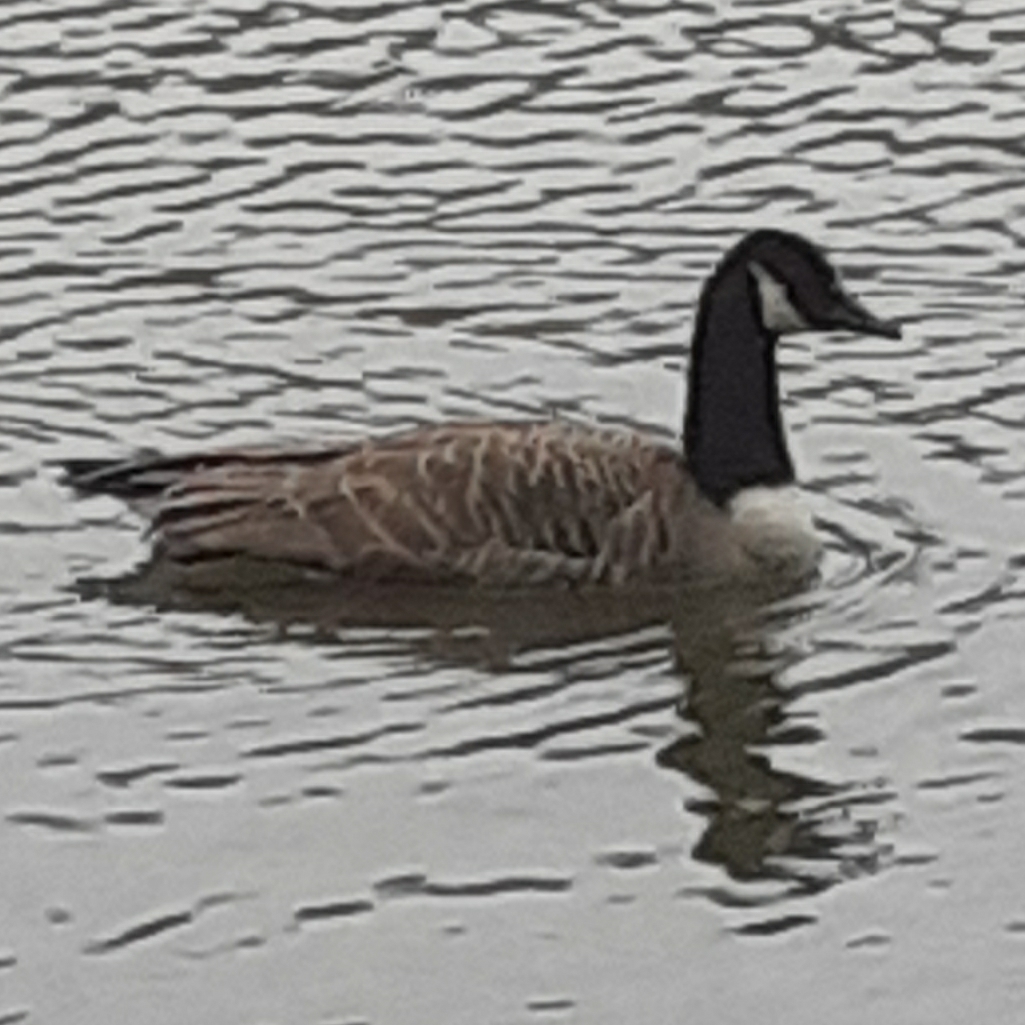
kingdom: Animalia
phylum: Chordata
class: Aves
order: Anseriformes
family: Anatidae
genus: Branta
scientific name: Branta canadensis
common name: Canada goose
